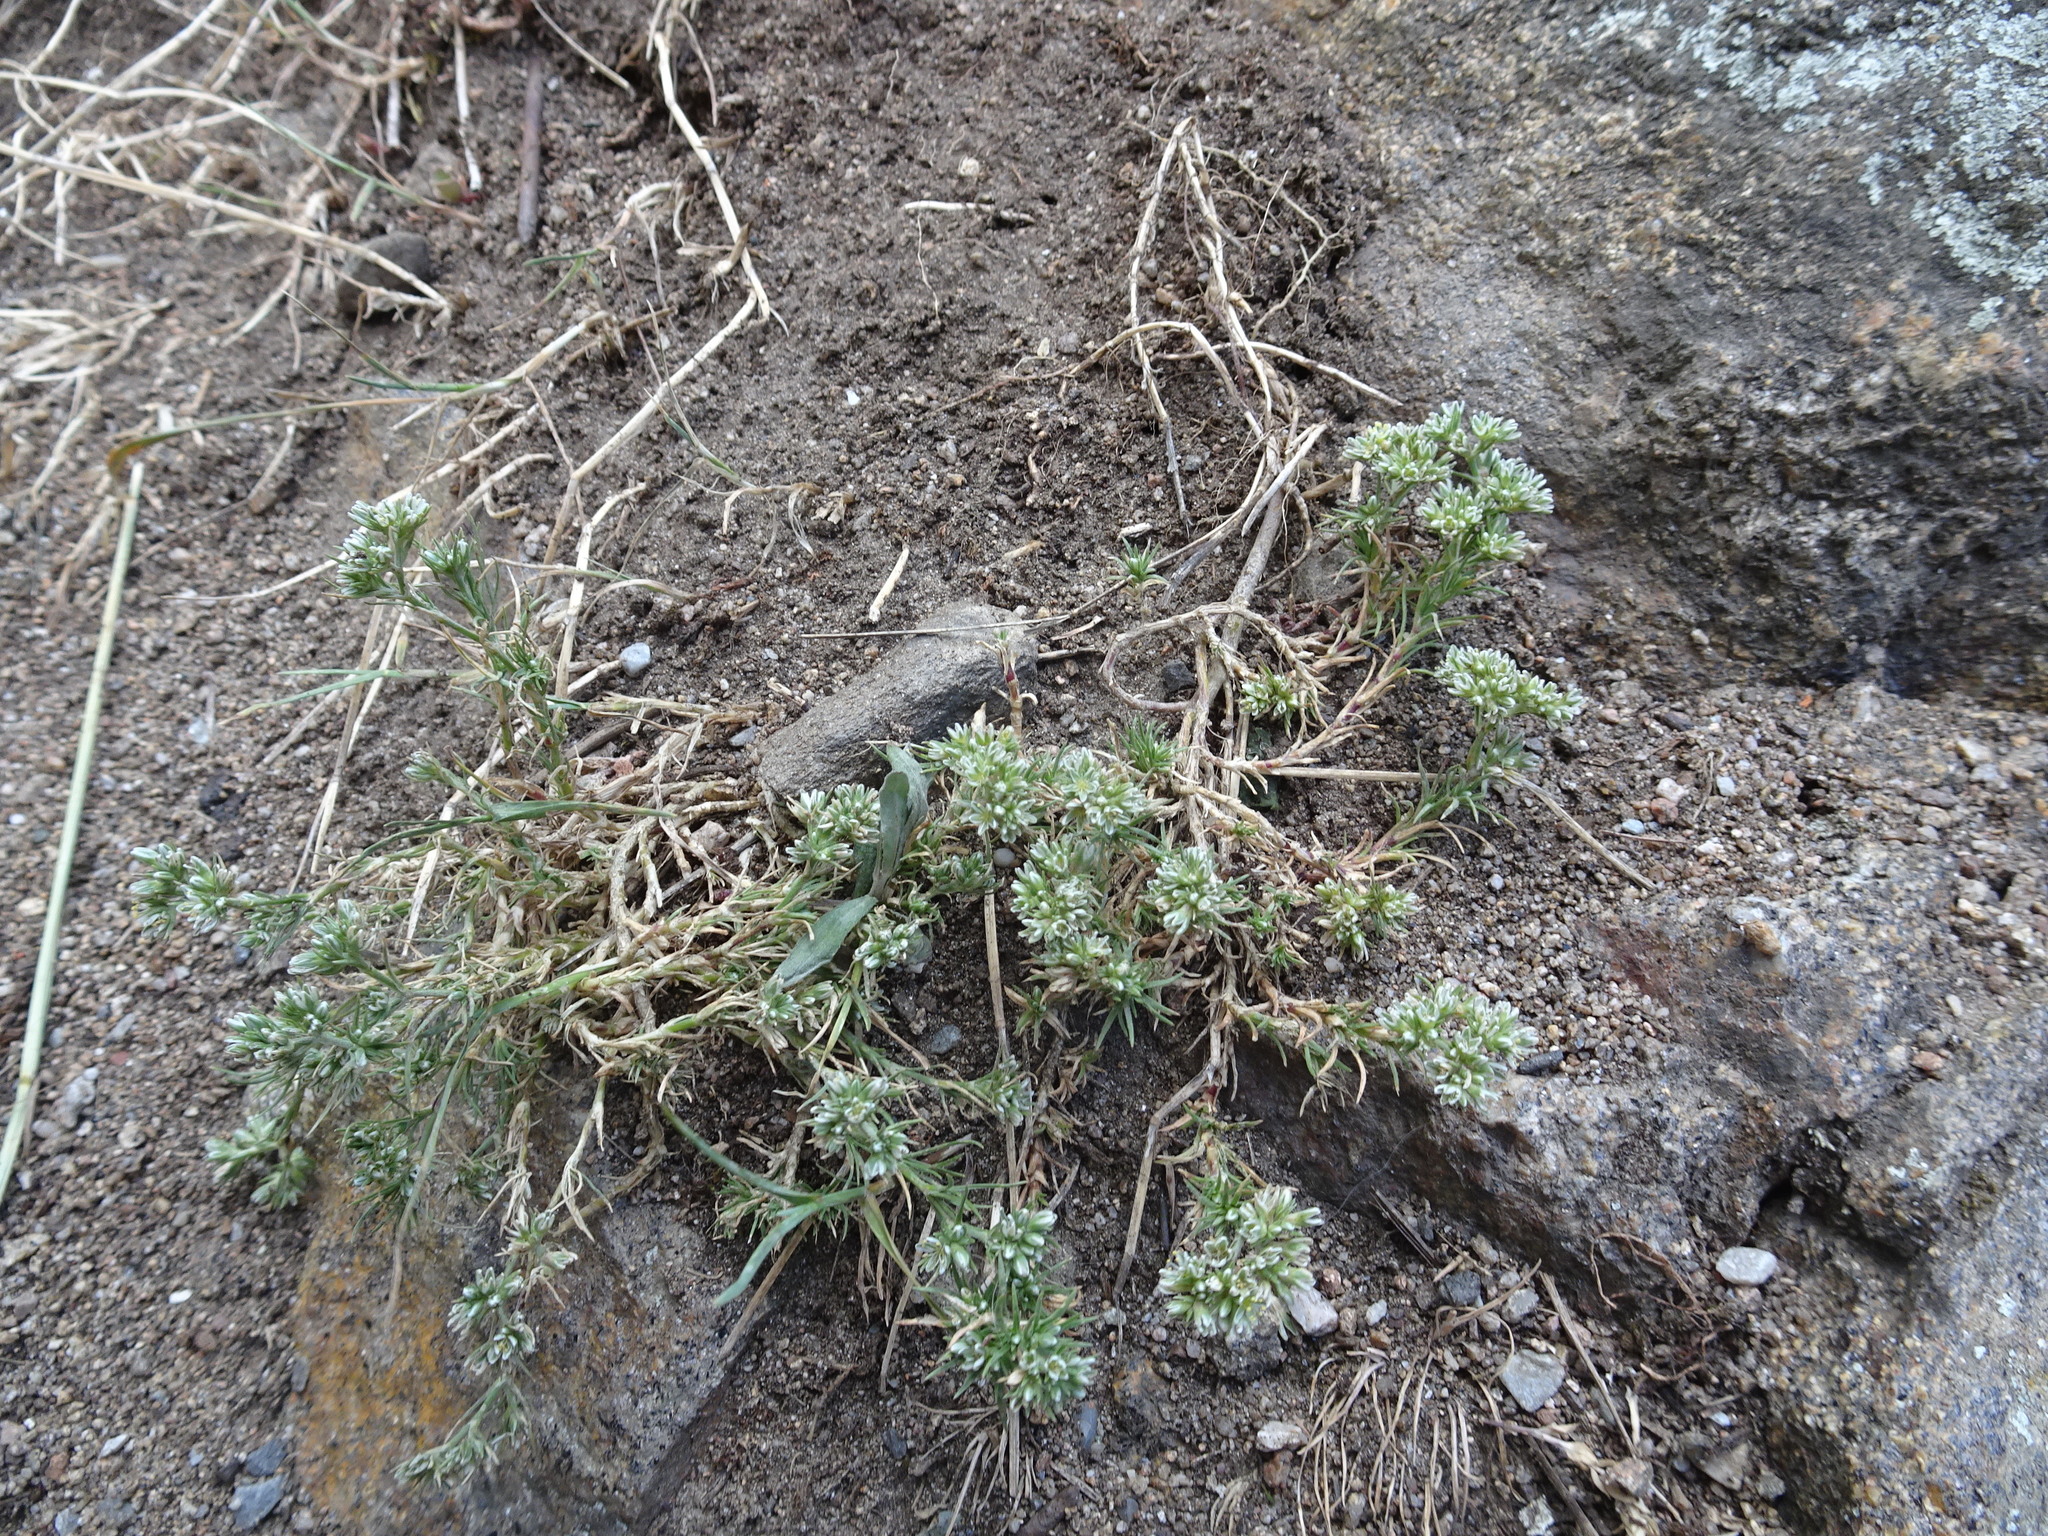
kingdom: Plantae
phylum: Tracheophyta
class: Magnoliopsida
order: Caryophyllales
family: Caryophyllaceae
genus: Scleranthus
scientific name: Scleranthus perennis
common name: Perennial knawel
